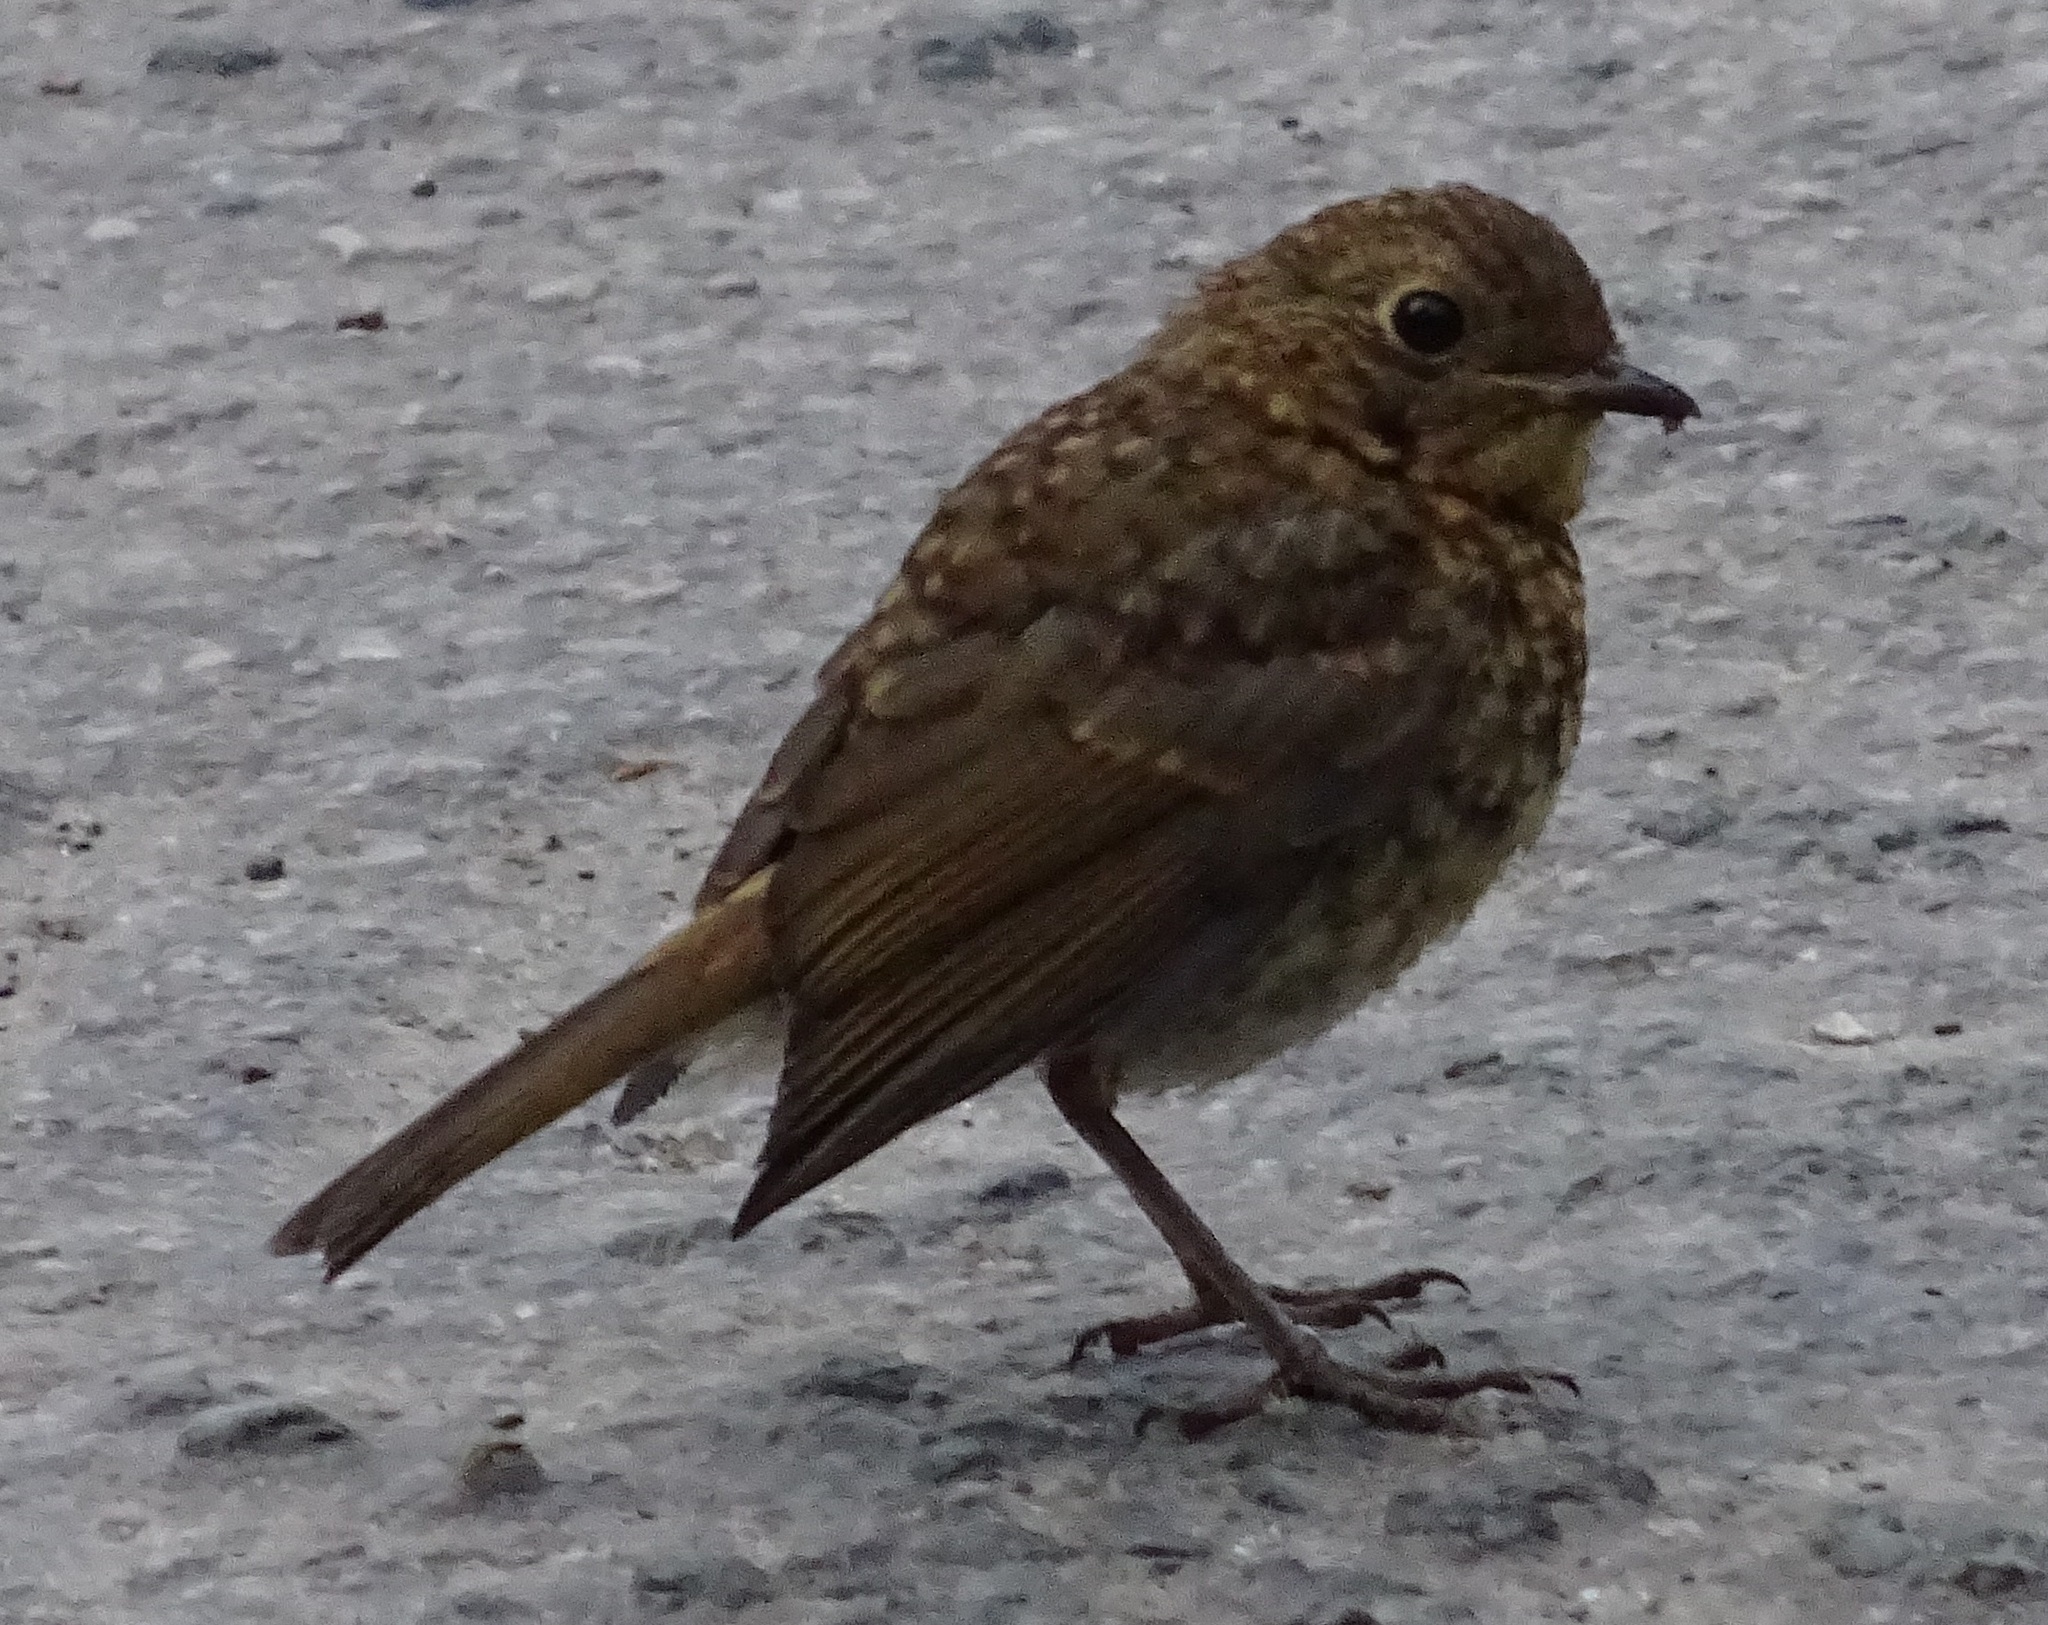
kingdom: Animalia
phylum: Chordata
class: Aves
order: Passeriformes
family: Muscicapidae
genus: Erithacus
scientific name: Erithacus rubecula
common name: European robin
